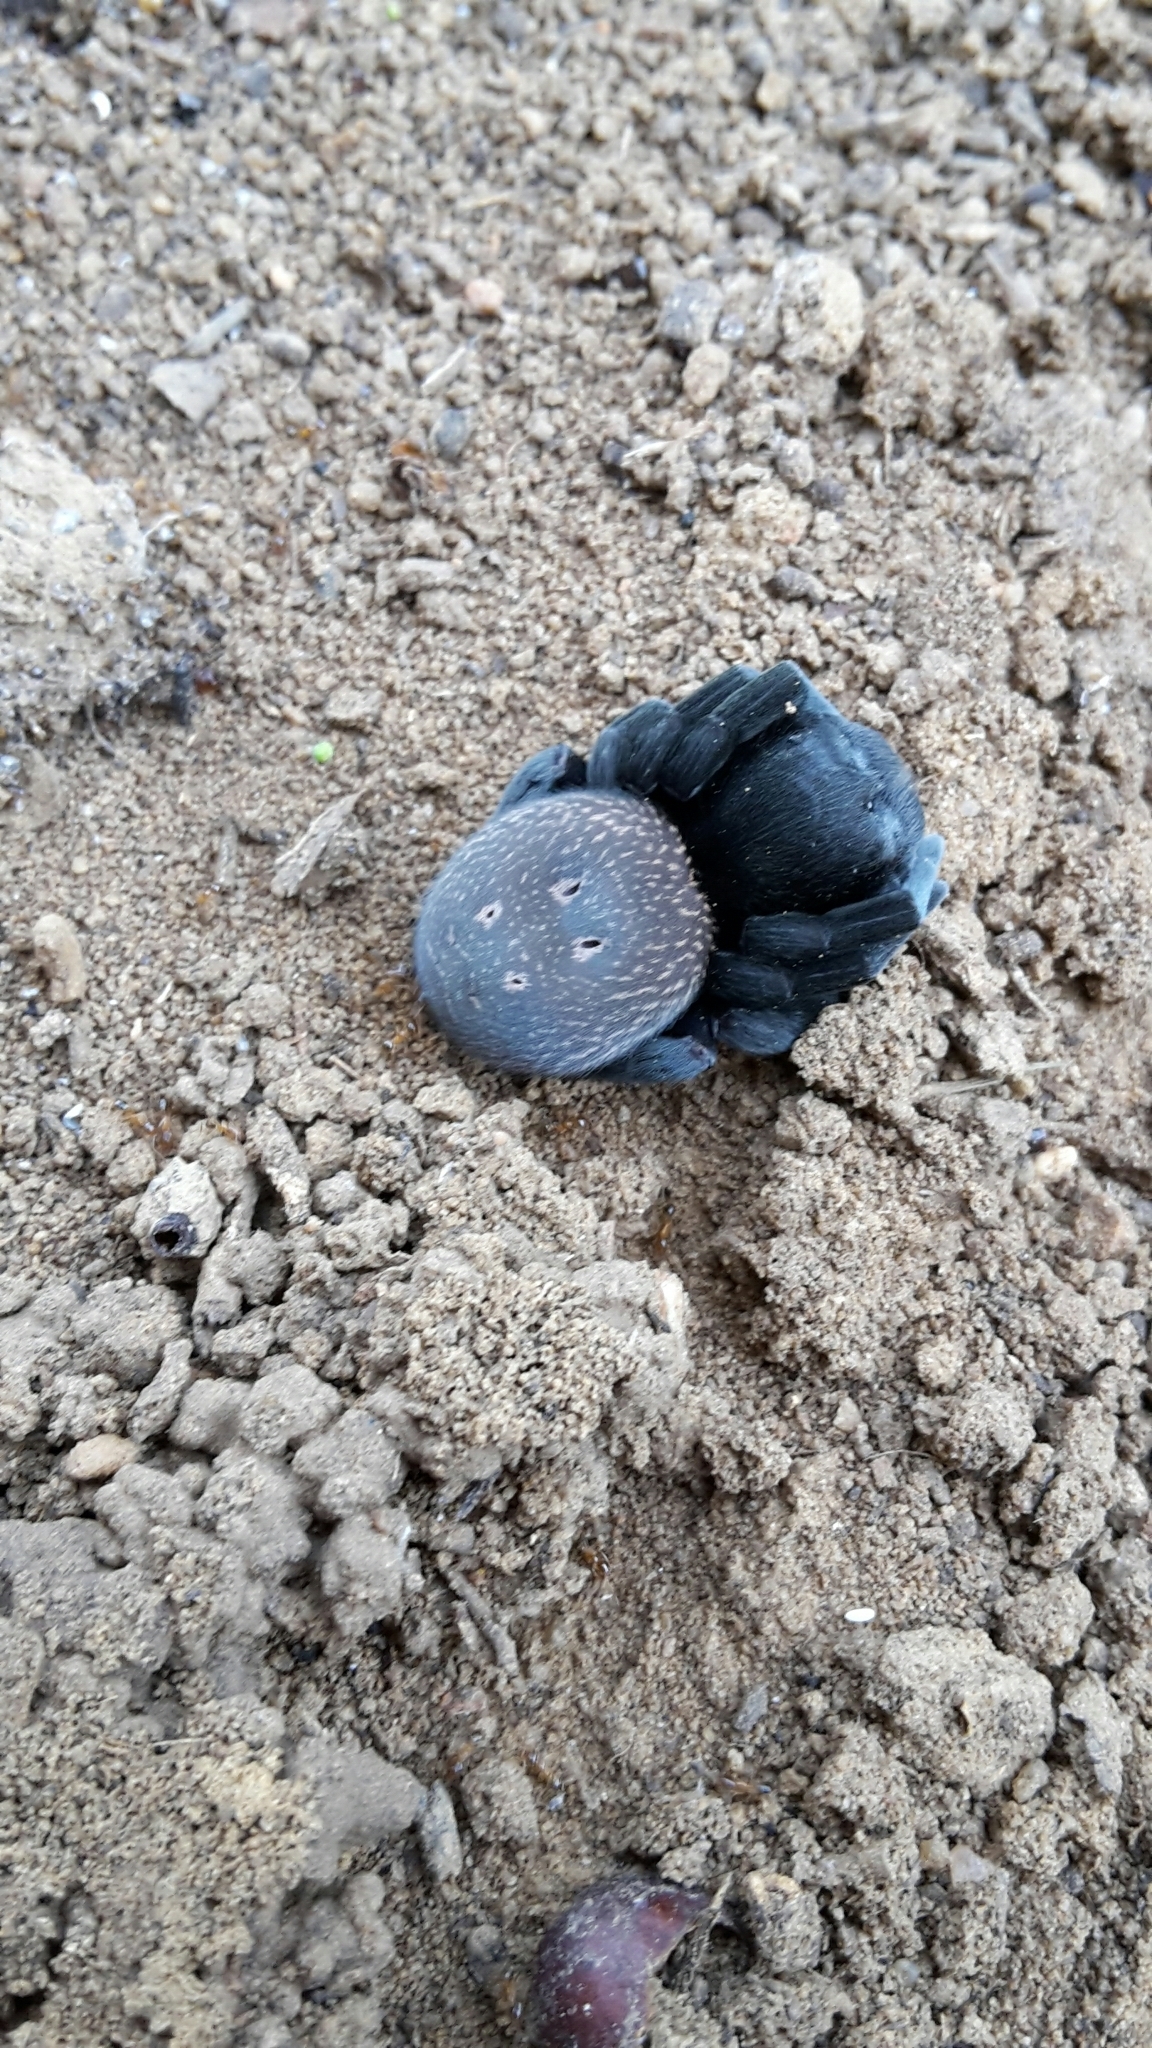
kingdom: Animalia
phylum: Arthropoda
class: Arachnida
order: Araneae
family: Eresidae
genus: Gandanameno
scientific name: Gandanameno spenceri
